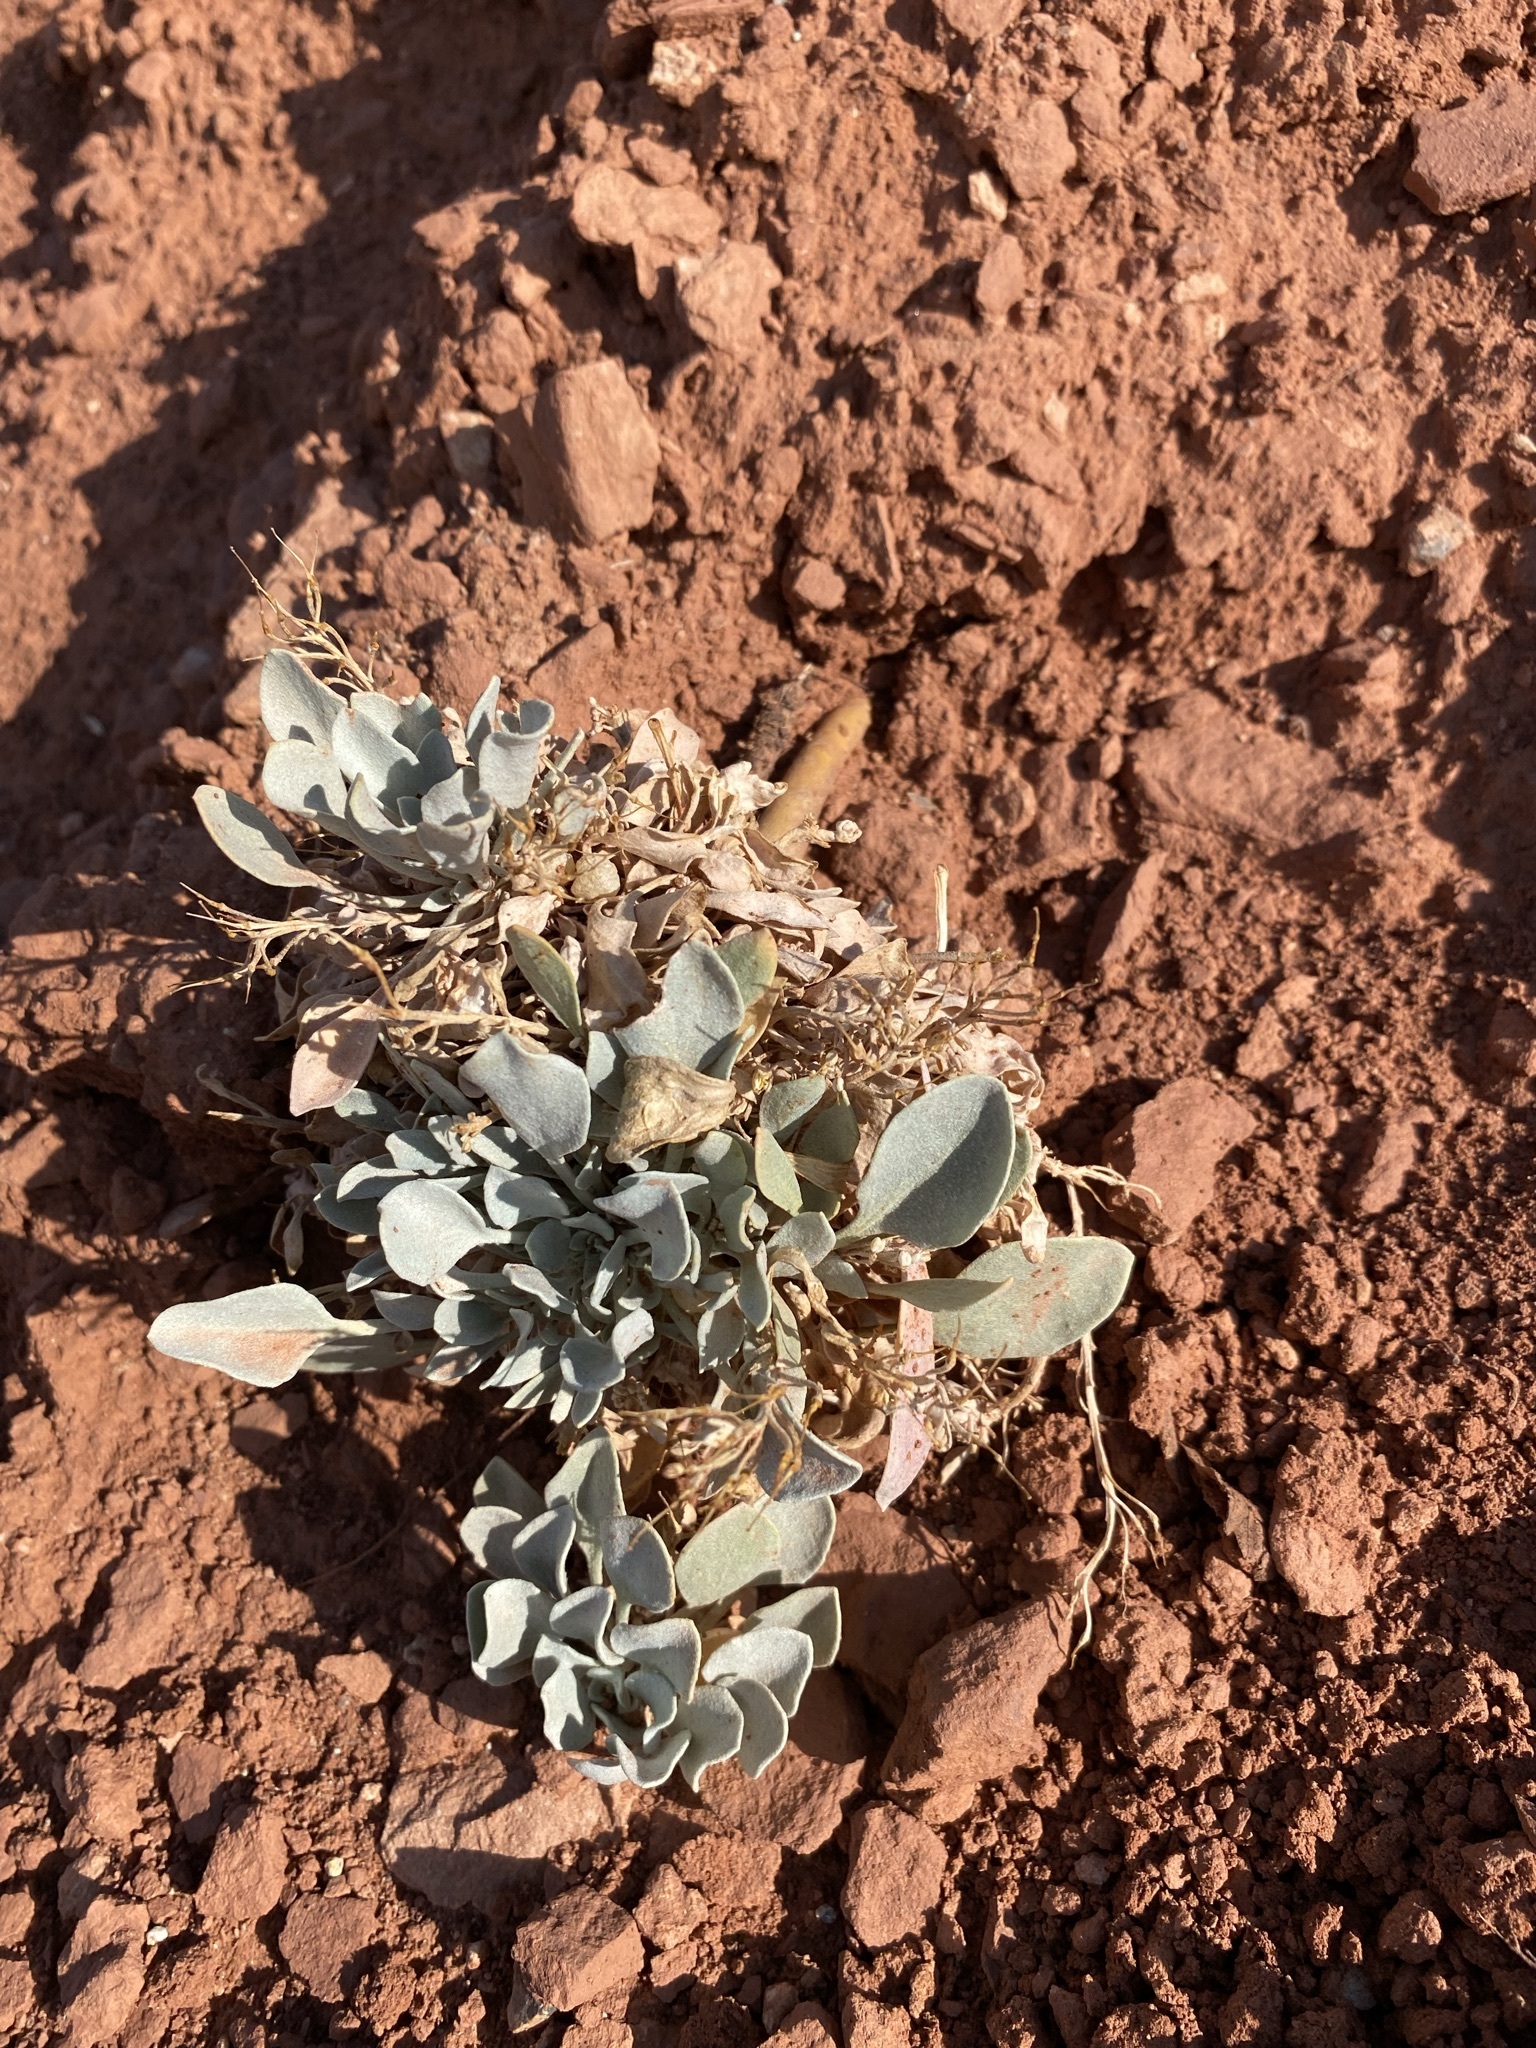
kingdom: Plantae
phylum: Tracheophyta
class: Magnoliopsida
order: Brassicales
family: Brassicaceae
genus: Physaria
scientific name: Physaria acutifolia
